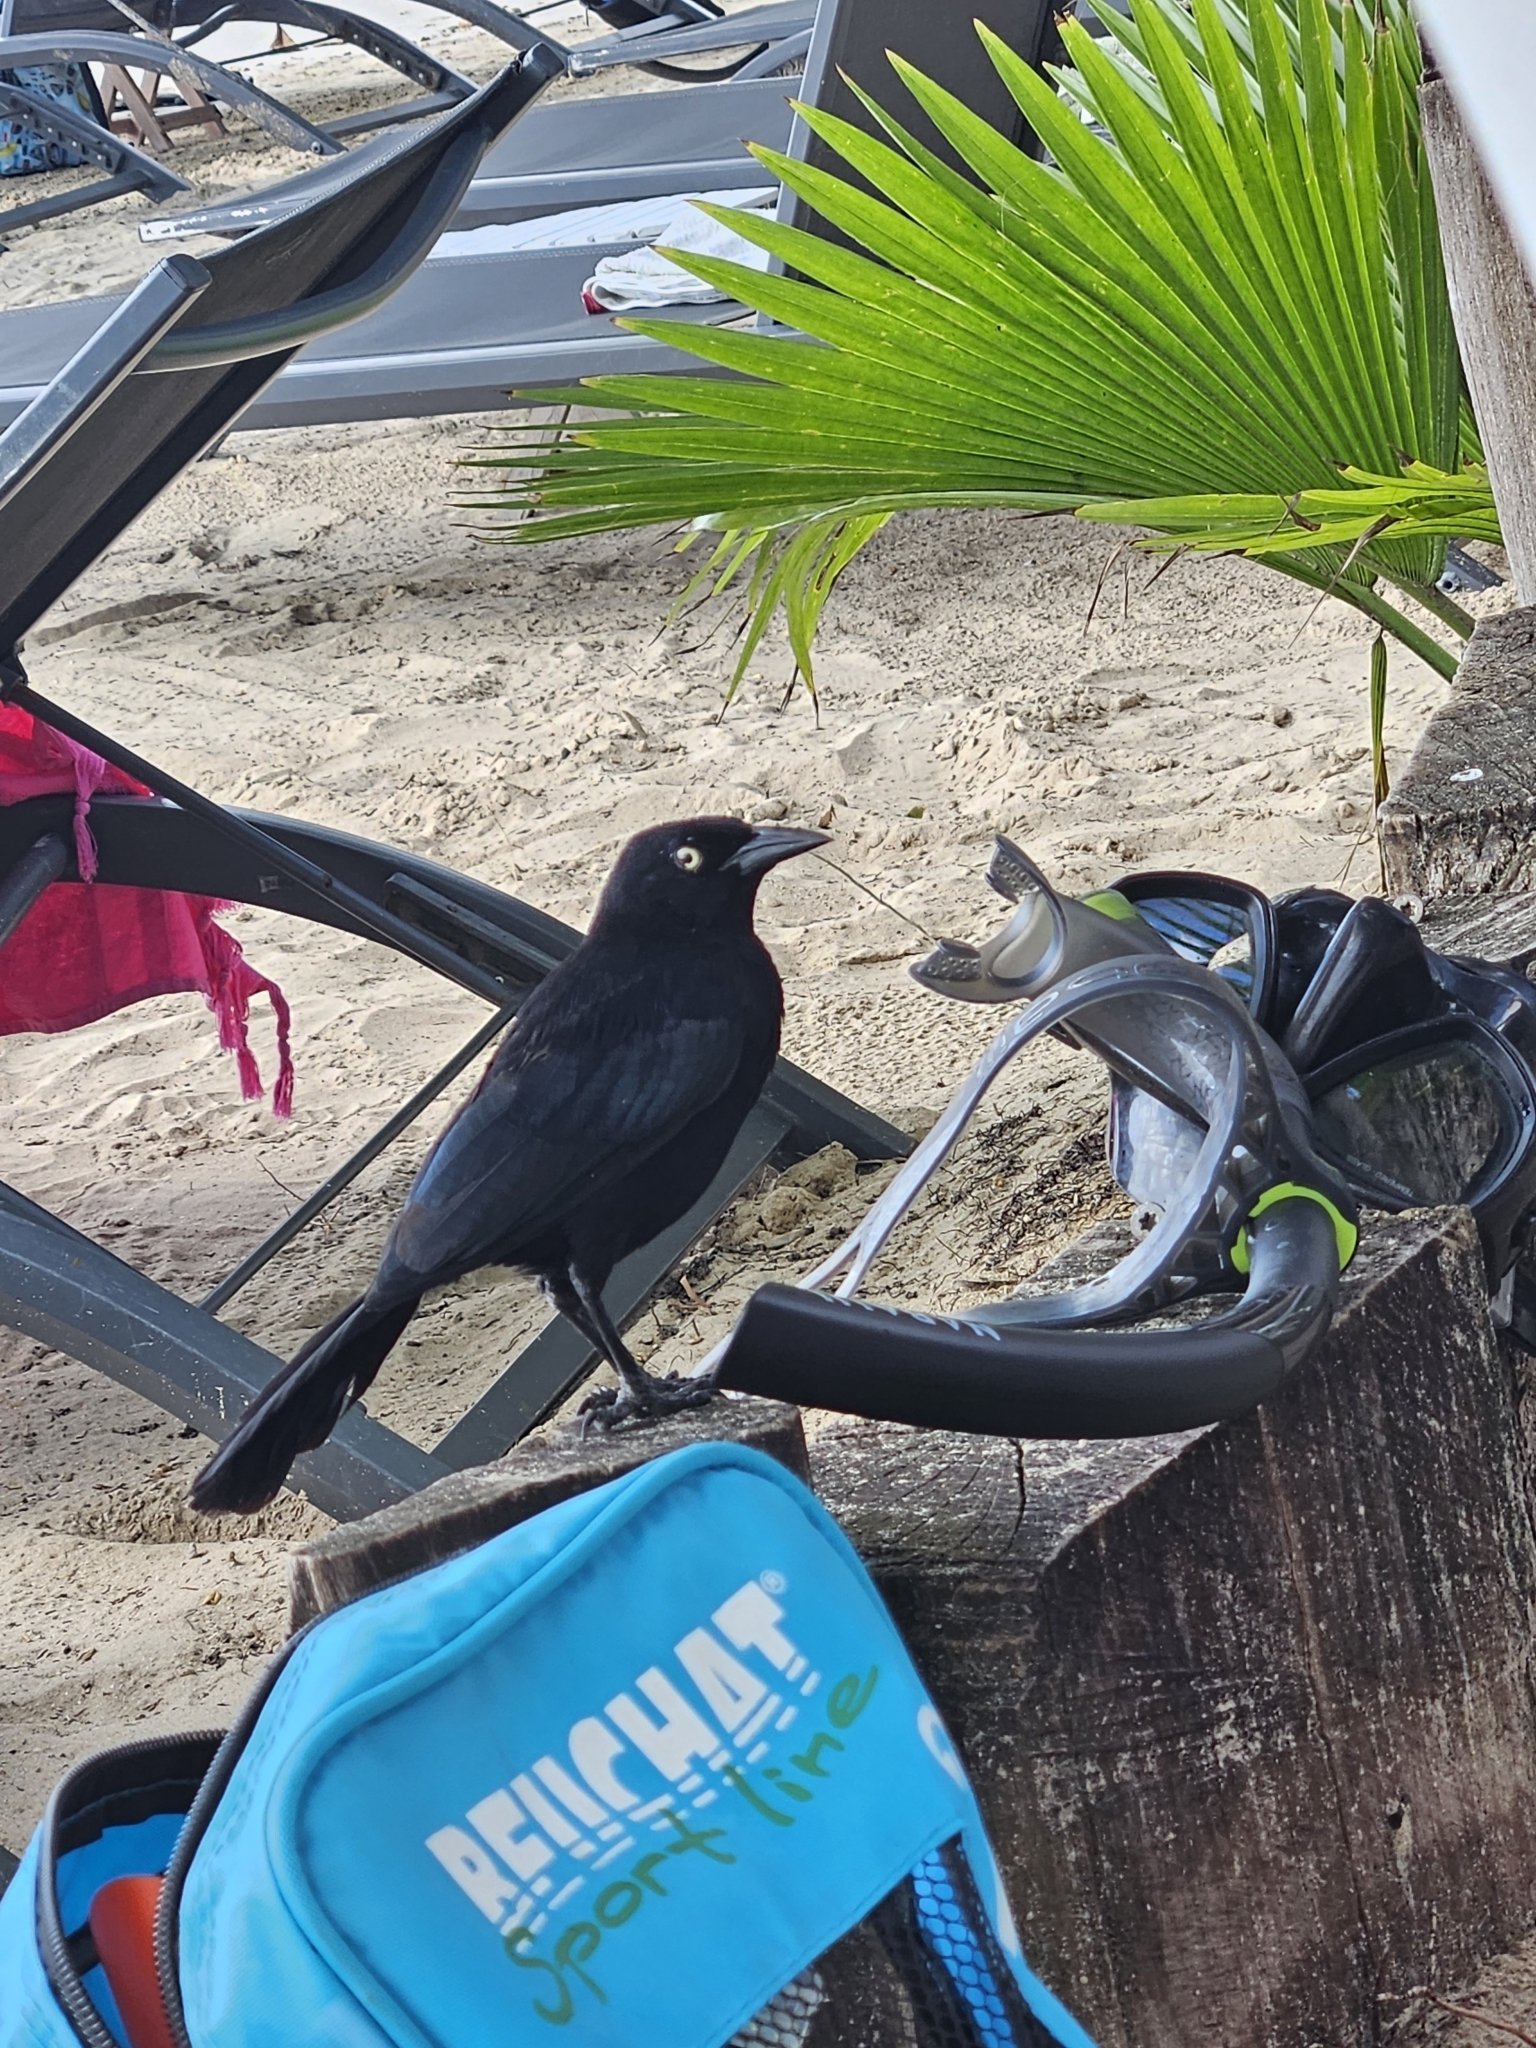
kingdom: Animalia
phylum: Chordata
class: Aves
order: Passeriformes
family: Icteridae
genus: Quiscalus
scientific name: Quiscalus lugubris
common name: Carib grackle
